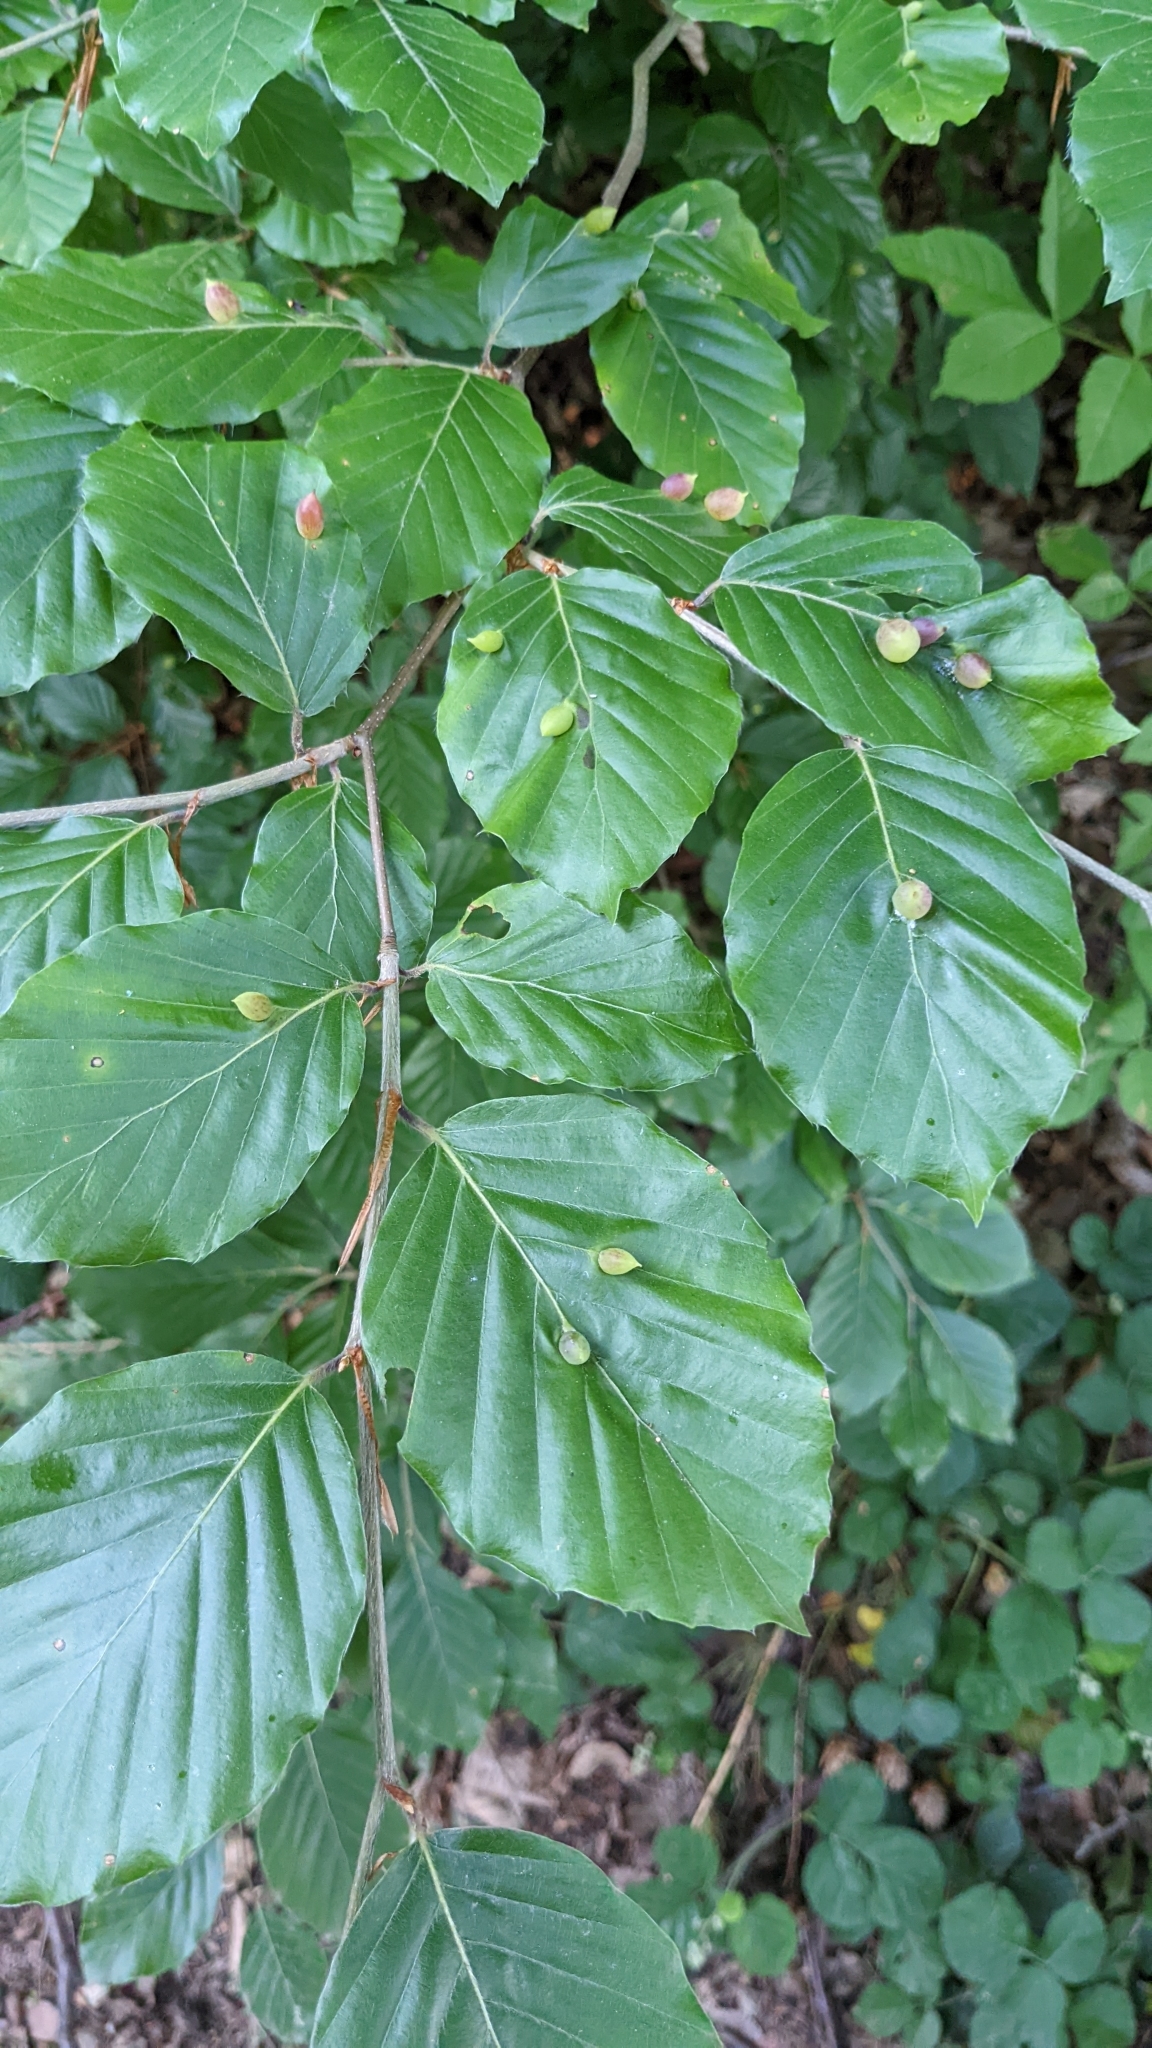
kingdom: Animalia
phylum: Arthropoda
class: Insecta
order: Diptera
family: Cecidomyiidae
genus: Mikiola
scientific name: Mikiola fagi
